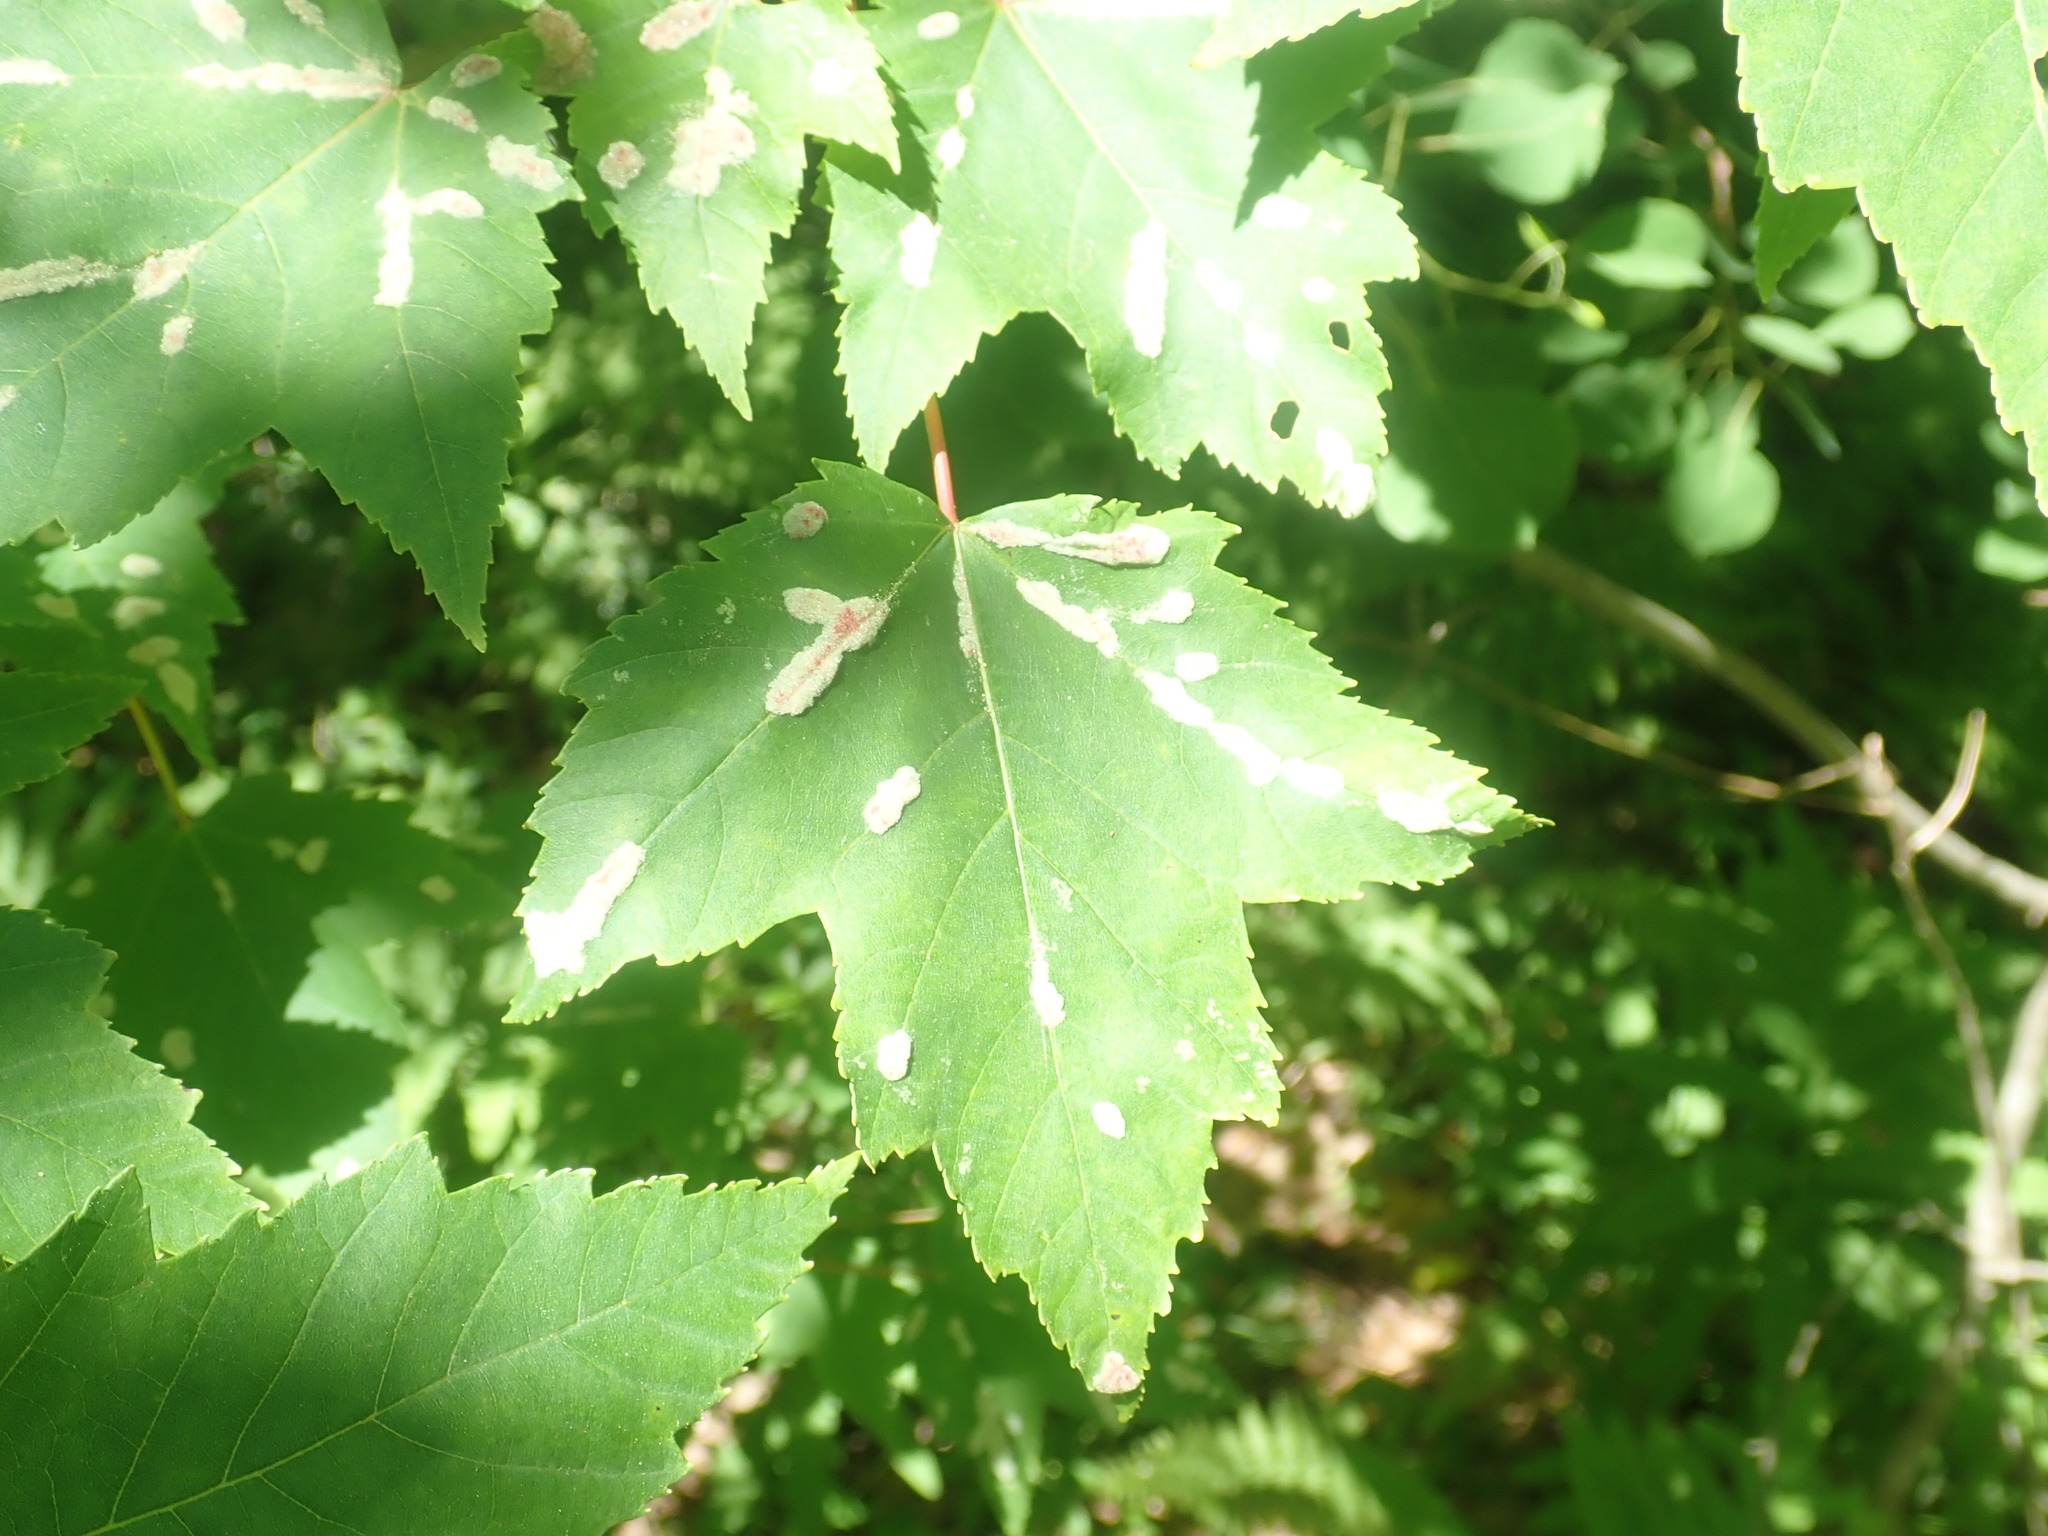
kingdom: Plantae
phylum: Tracheophyta
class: Magnoliopsida
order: Sapindales
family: Sapindaceae
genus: Acer
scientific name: Acer rubrum
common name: Red maple
